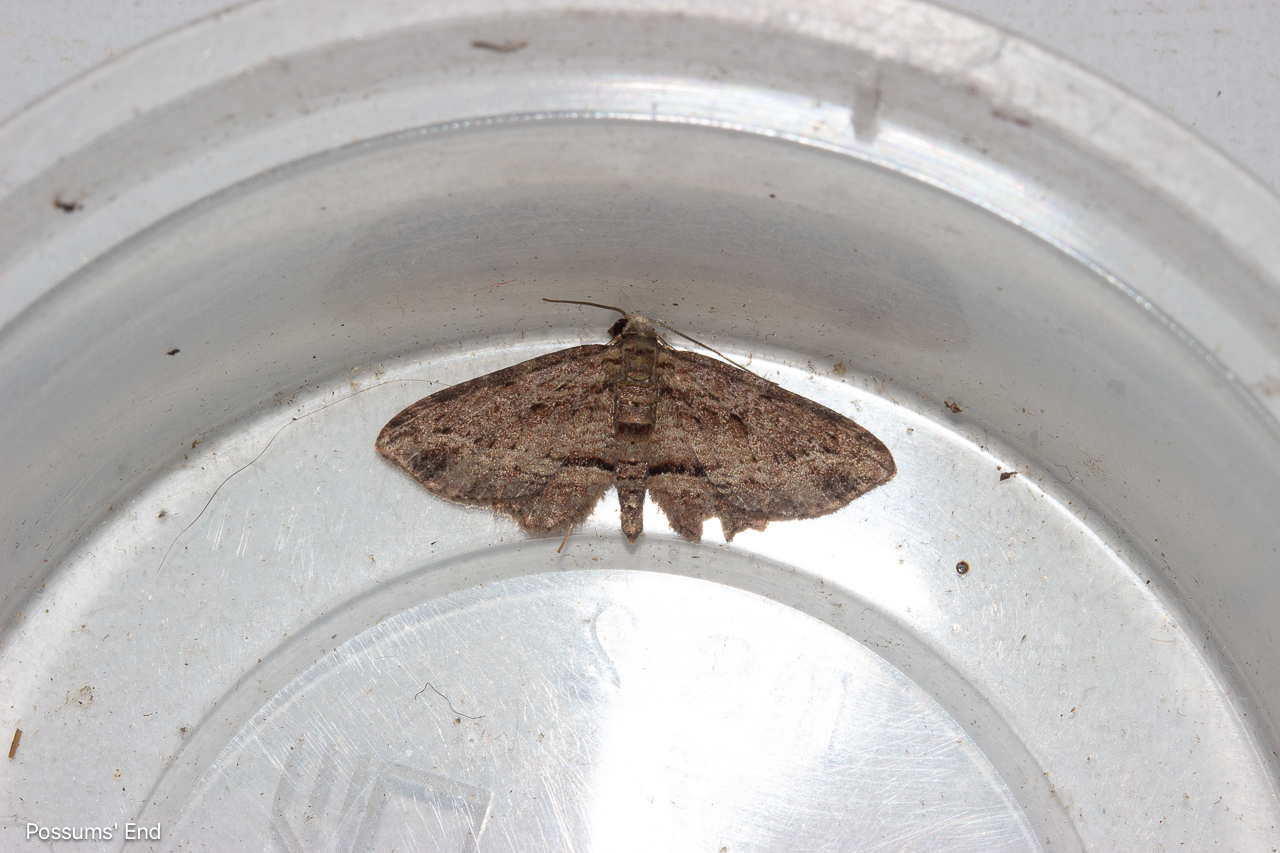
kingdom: Animalia
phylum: Arthropoda
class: Insecta
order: Lepidoptera
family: Geometridae
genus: Chloroclystis
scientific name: Chloroclystis filata
